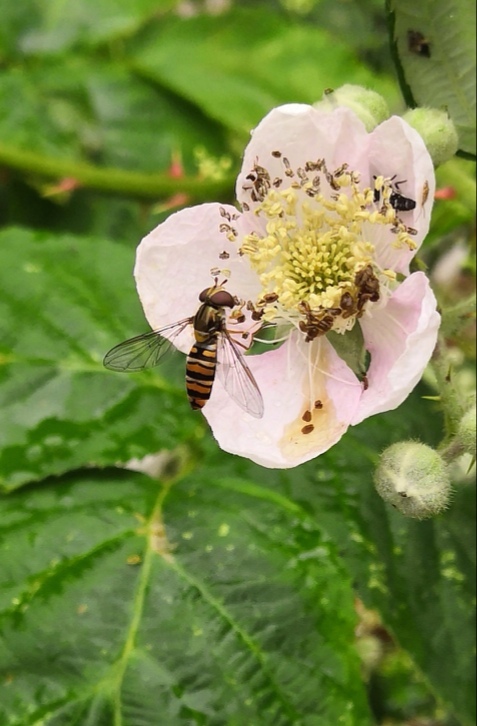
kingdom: Animalia
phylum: Arthropoda
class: Insecta
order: Diptera
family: Syrphidae
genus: Episyrphus
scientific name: Episyrphus balteatus
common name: Marmalade hoverfly
